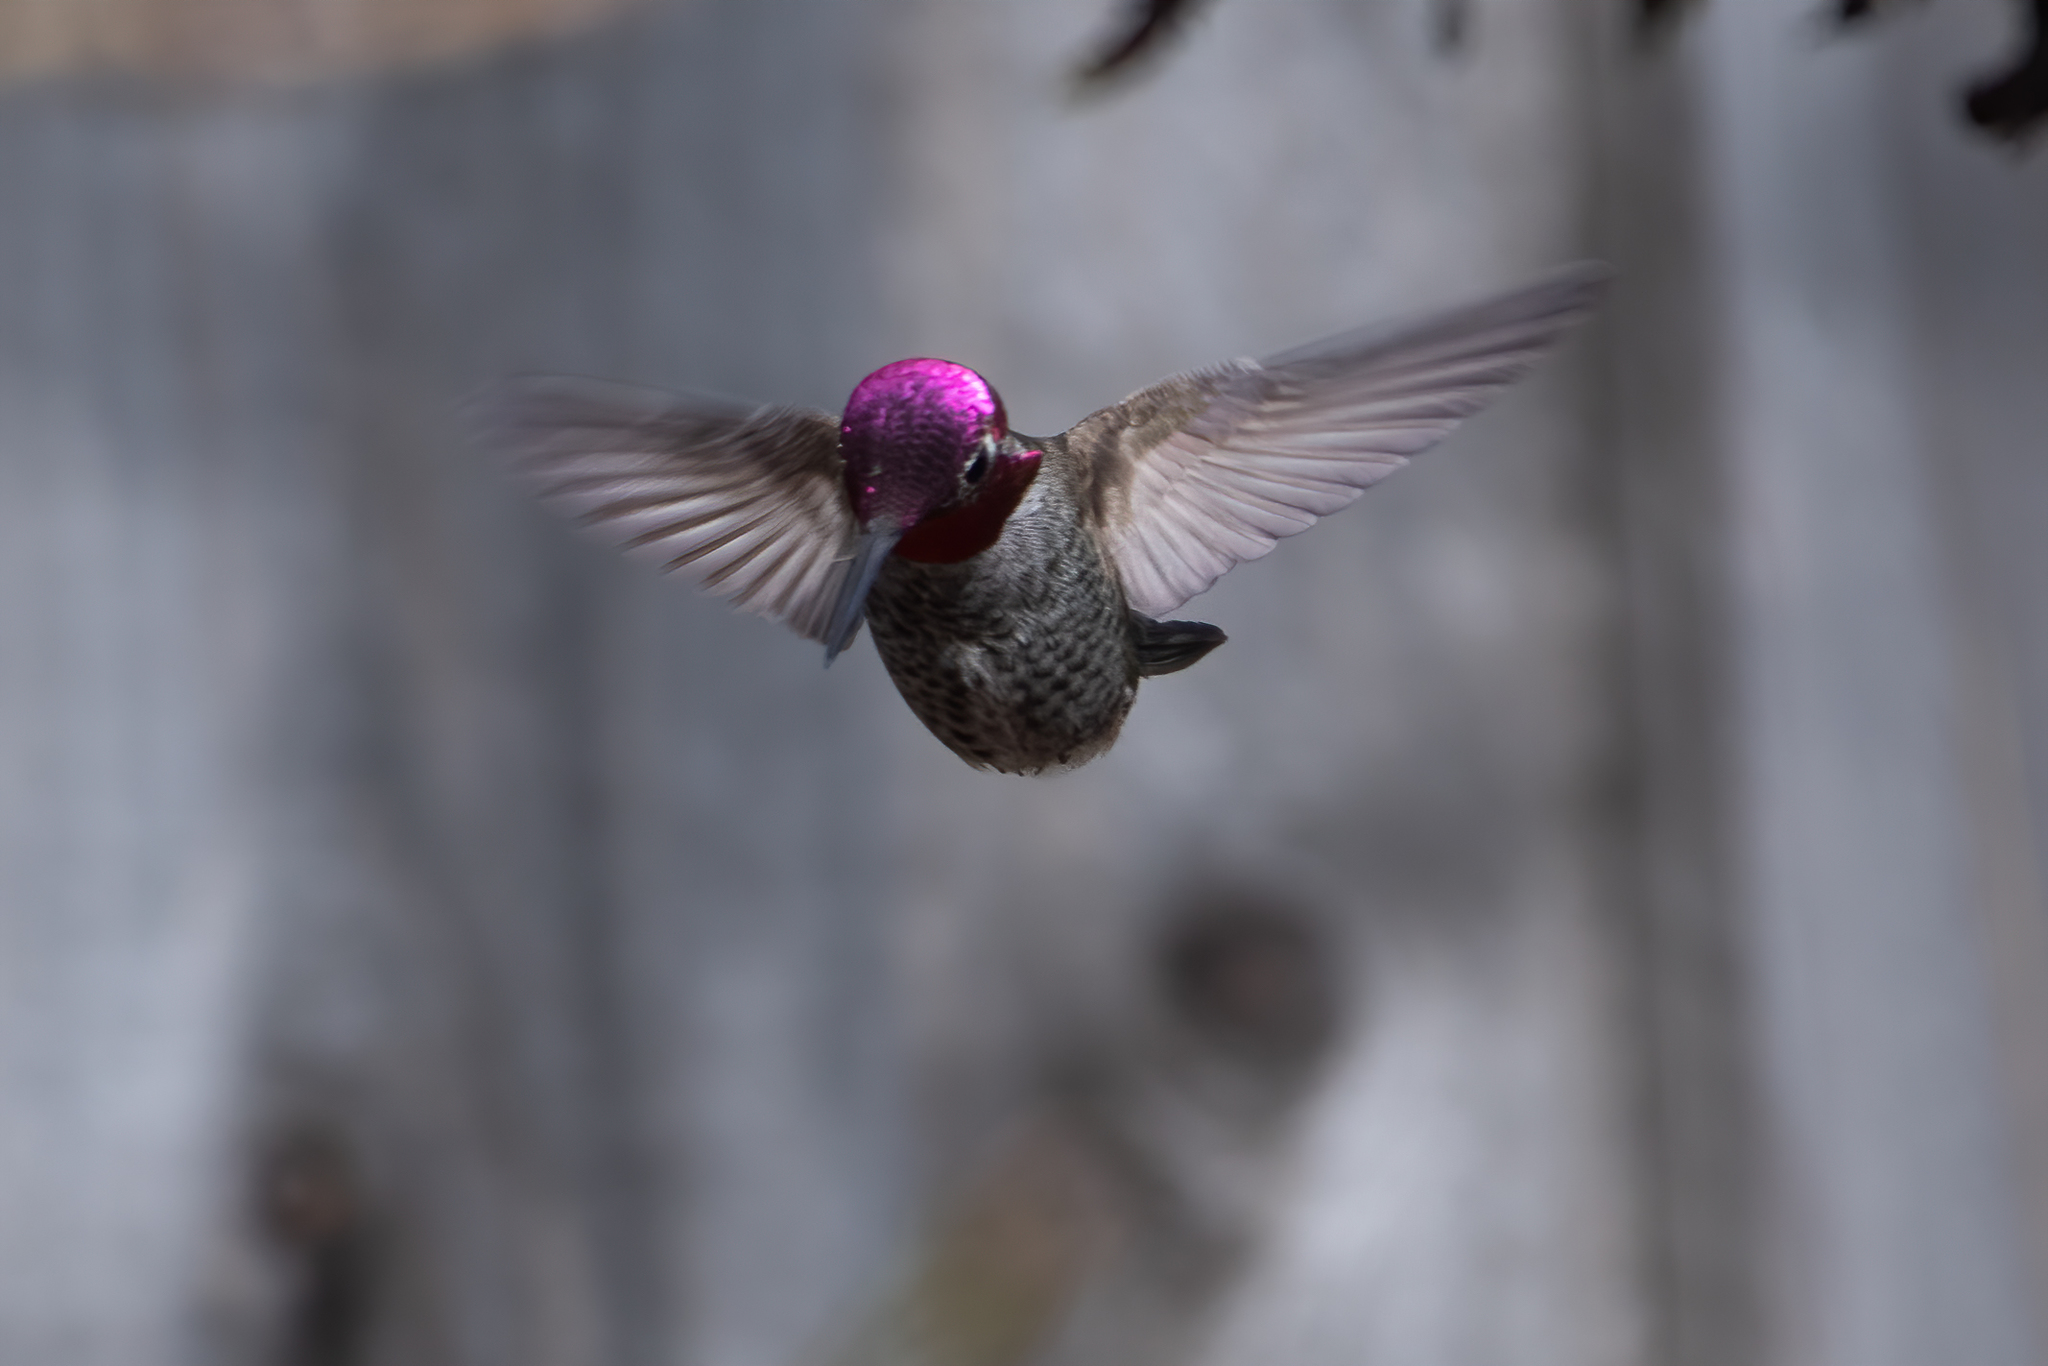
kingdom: Animalia
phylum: Chordata
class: Aves
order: Apodiformes
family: Trochilidae
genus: Calypte
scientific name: Calypte anna
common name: Anna's hummingbird
